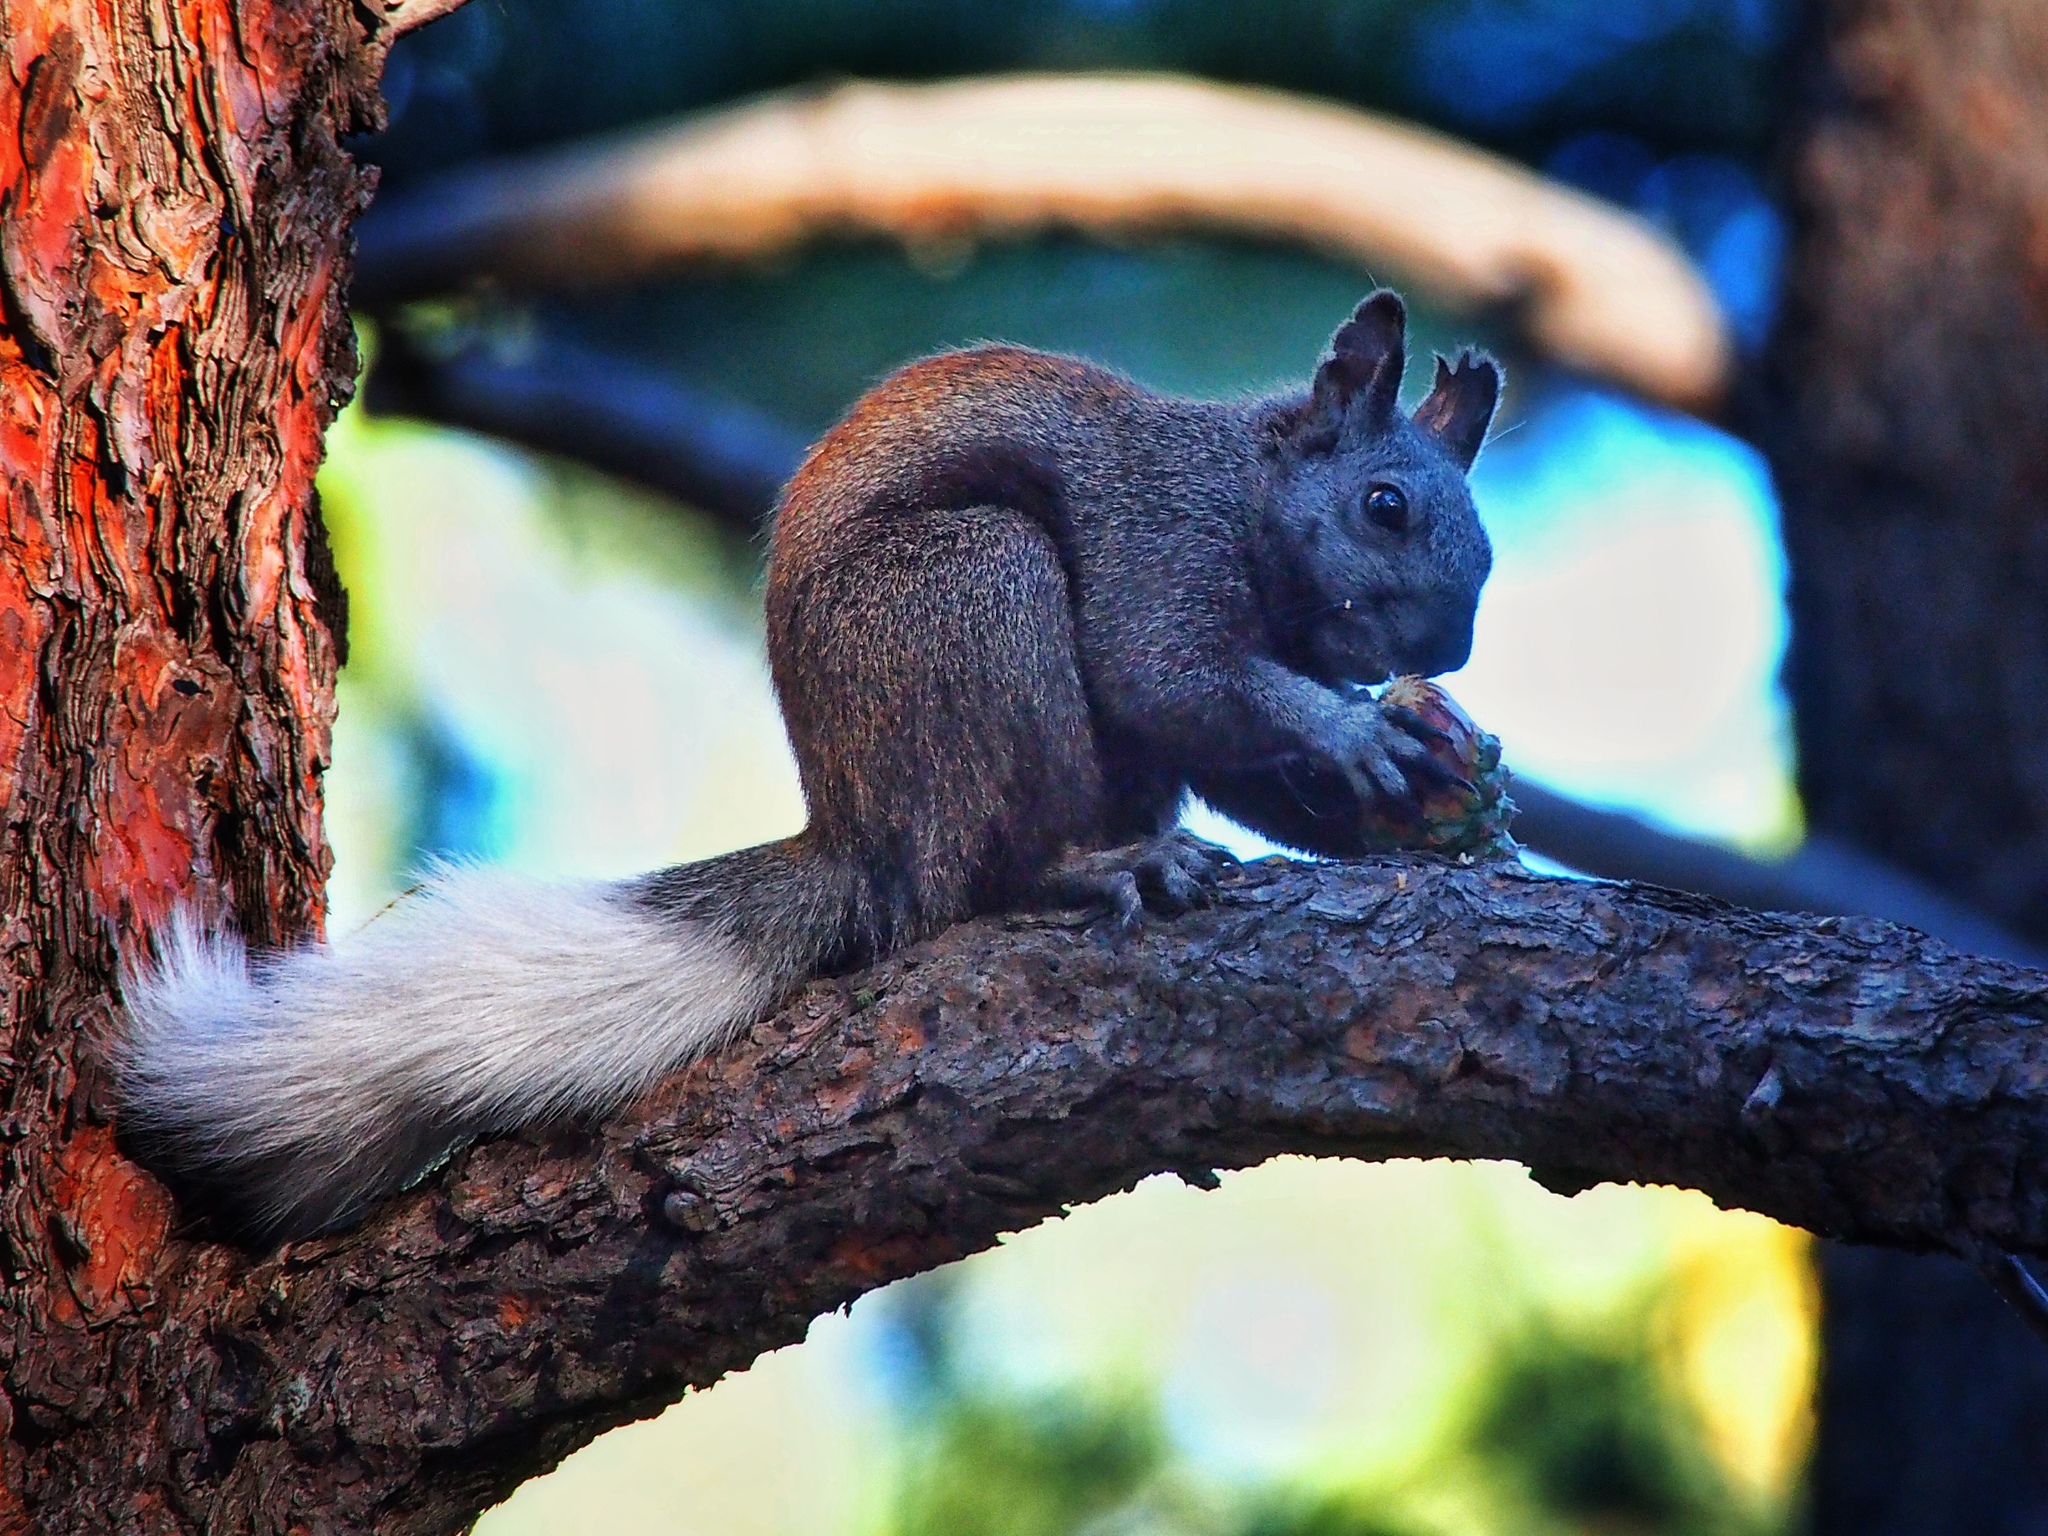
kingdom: Animalia
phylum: Chordata
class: Mammalia
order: Rodentia
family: Sciuridae
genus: Sciurus
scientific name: Sciurus aberti
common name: Abert's squirrel
